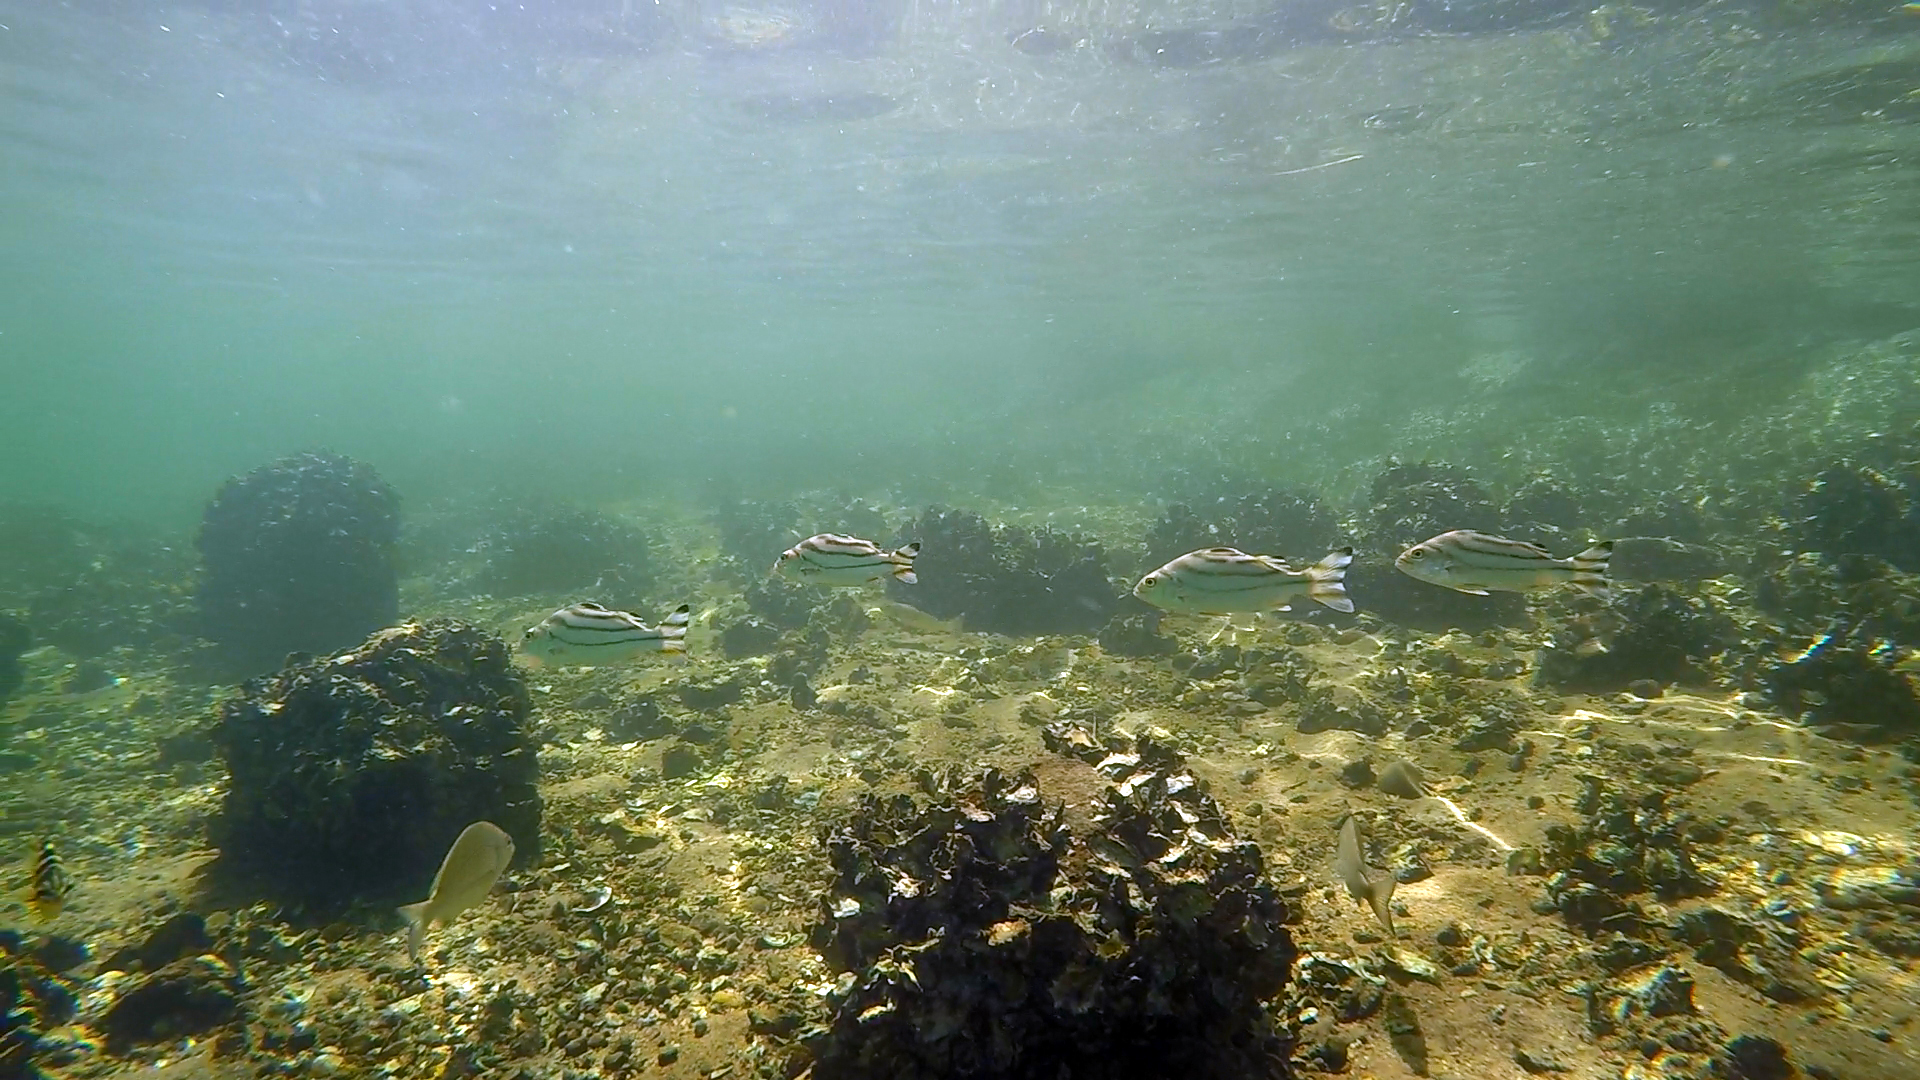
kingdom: Animalia
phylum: Chordata
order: Perciformes
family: Terapontidae
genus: Terapon
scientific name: Terapon jarbua
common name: Jarbua terapon
